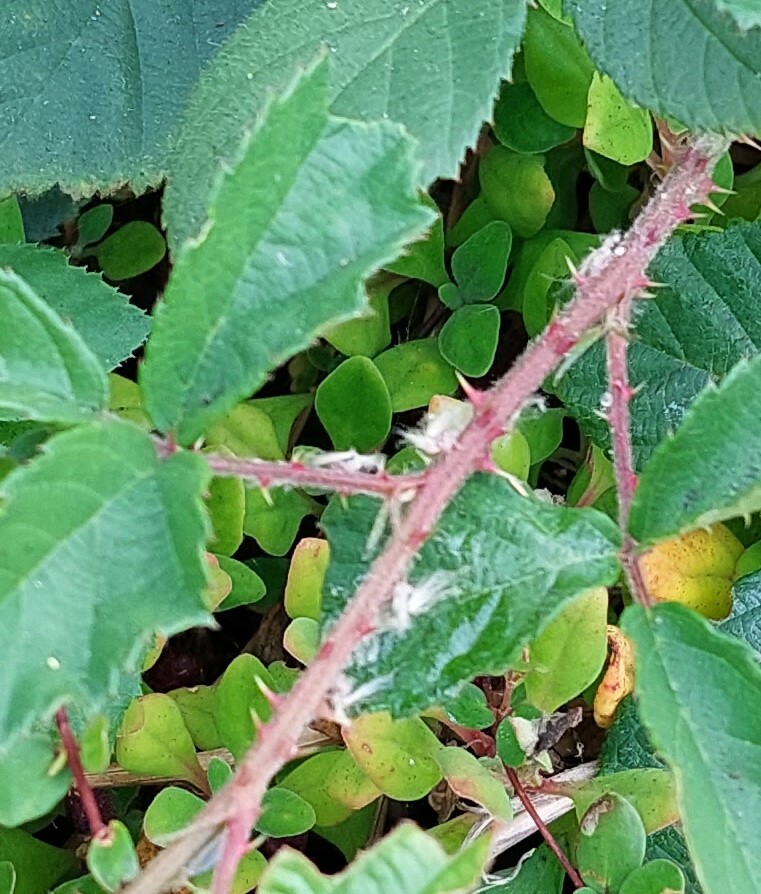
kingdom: Animalia
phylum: Arthropoda
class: Insecta
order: Hemiptera
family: Ricaniidae
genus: Scolypopa
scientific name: Scolypopa australis
